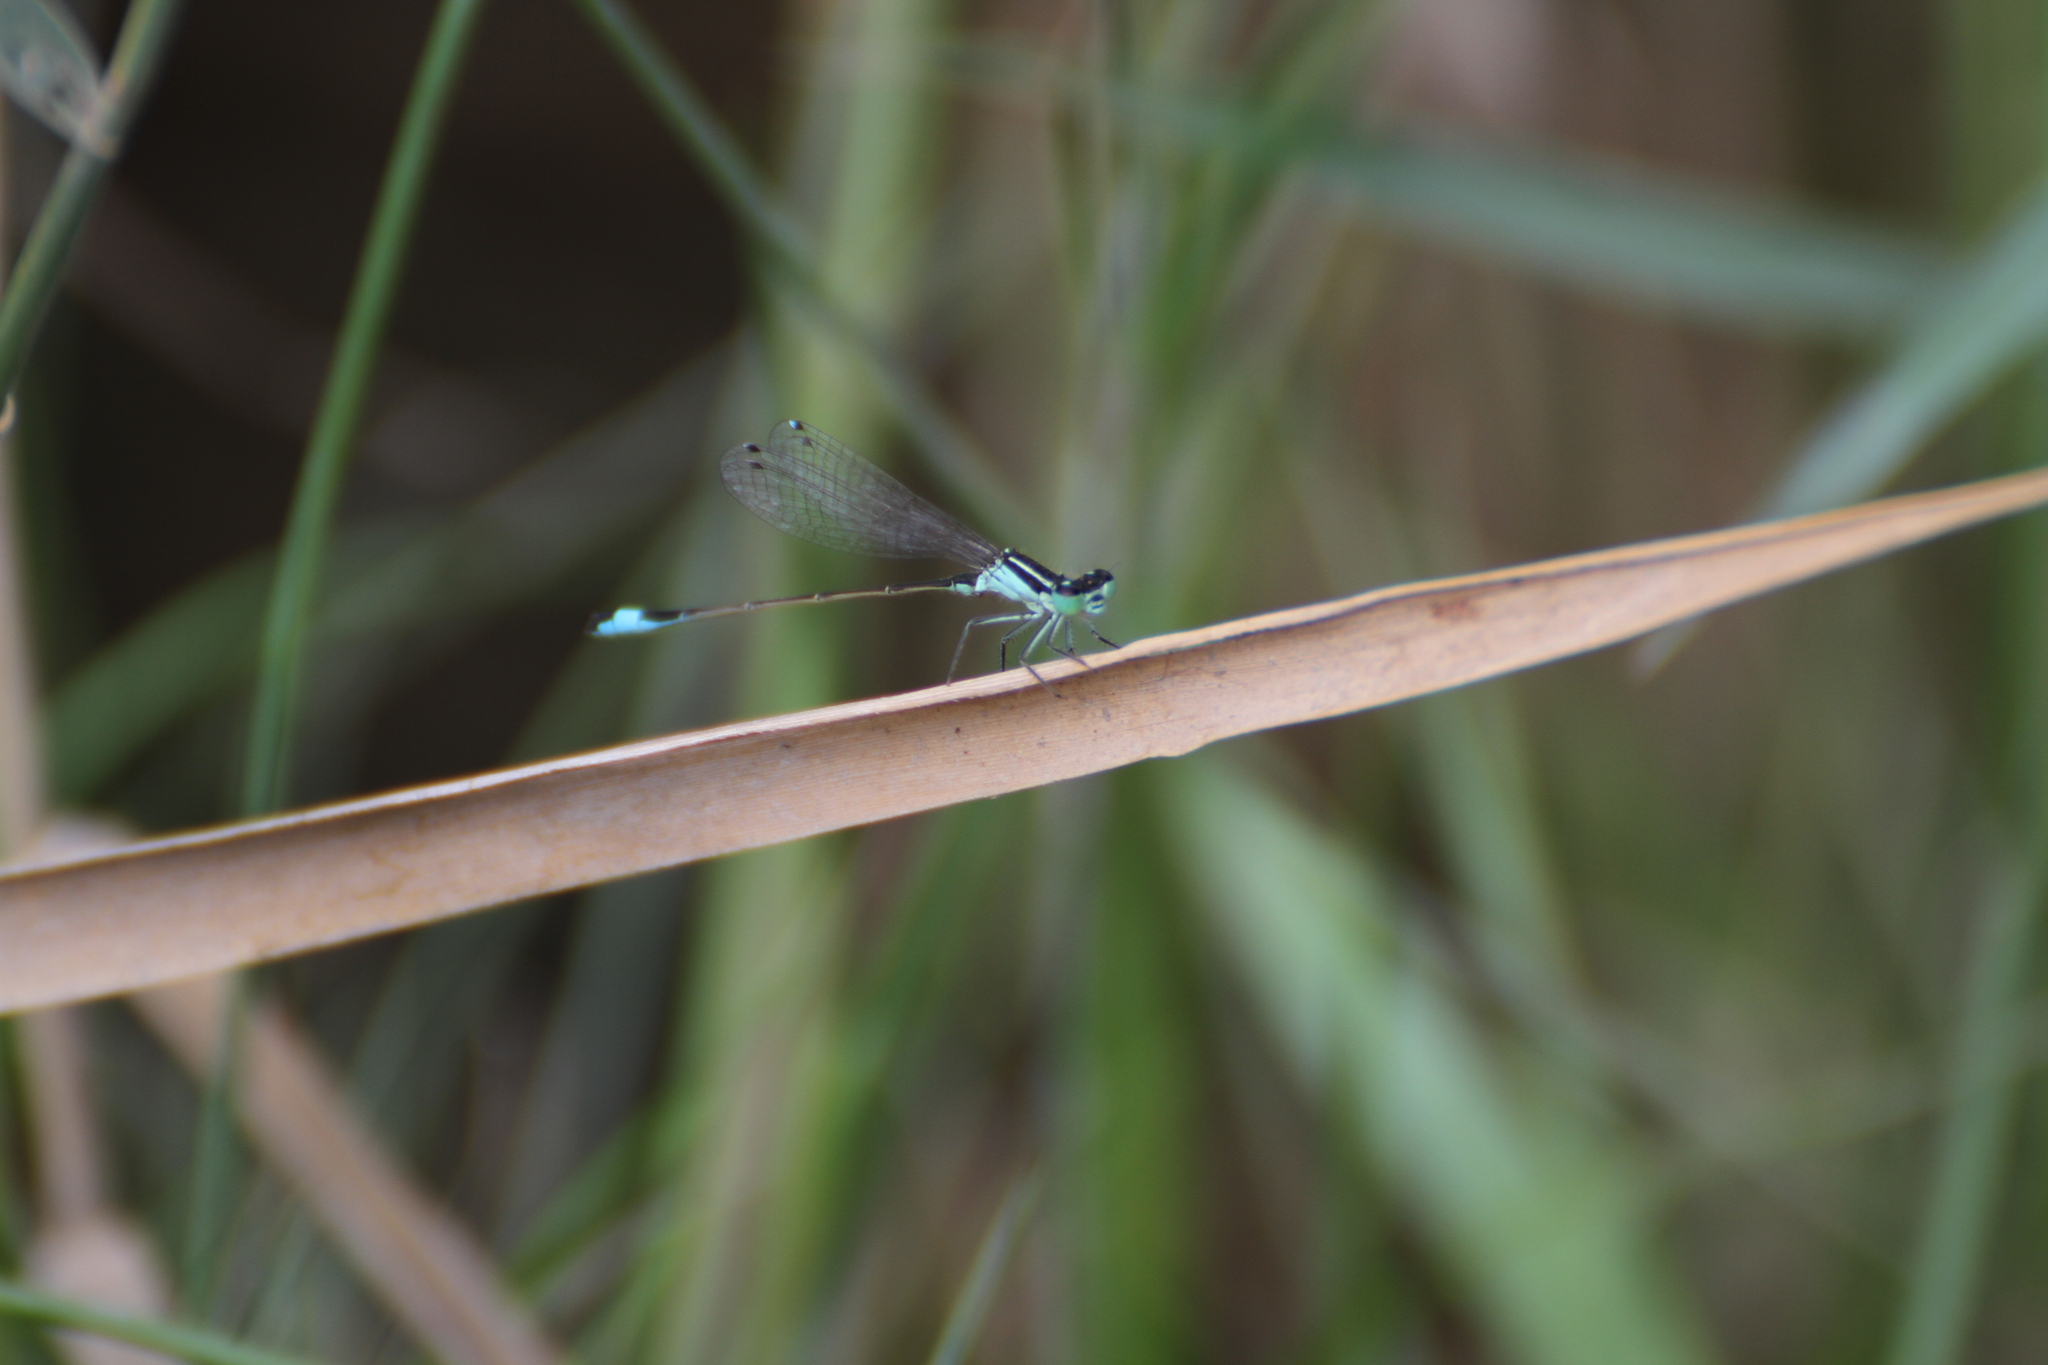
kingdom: Animalia
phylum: Arthropoda
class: Insecta
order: Odonata
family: Coenagrionidae
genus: Ischnura
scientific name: Ischnura elegans
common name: Blue-tailed damselfly
